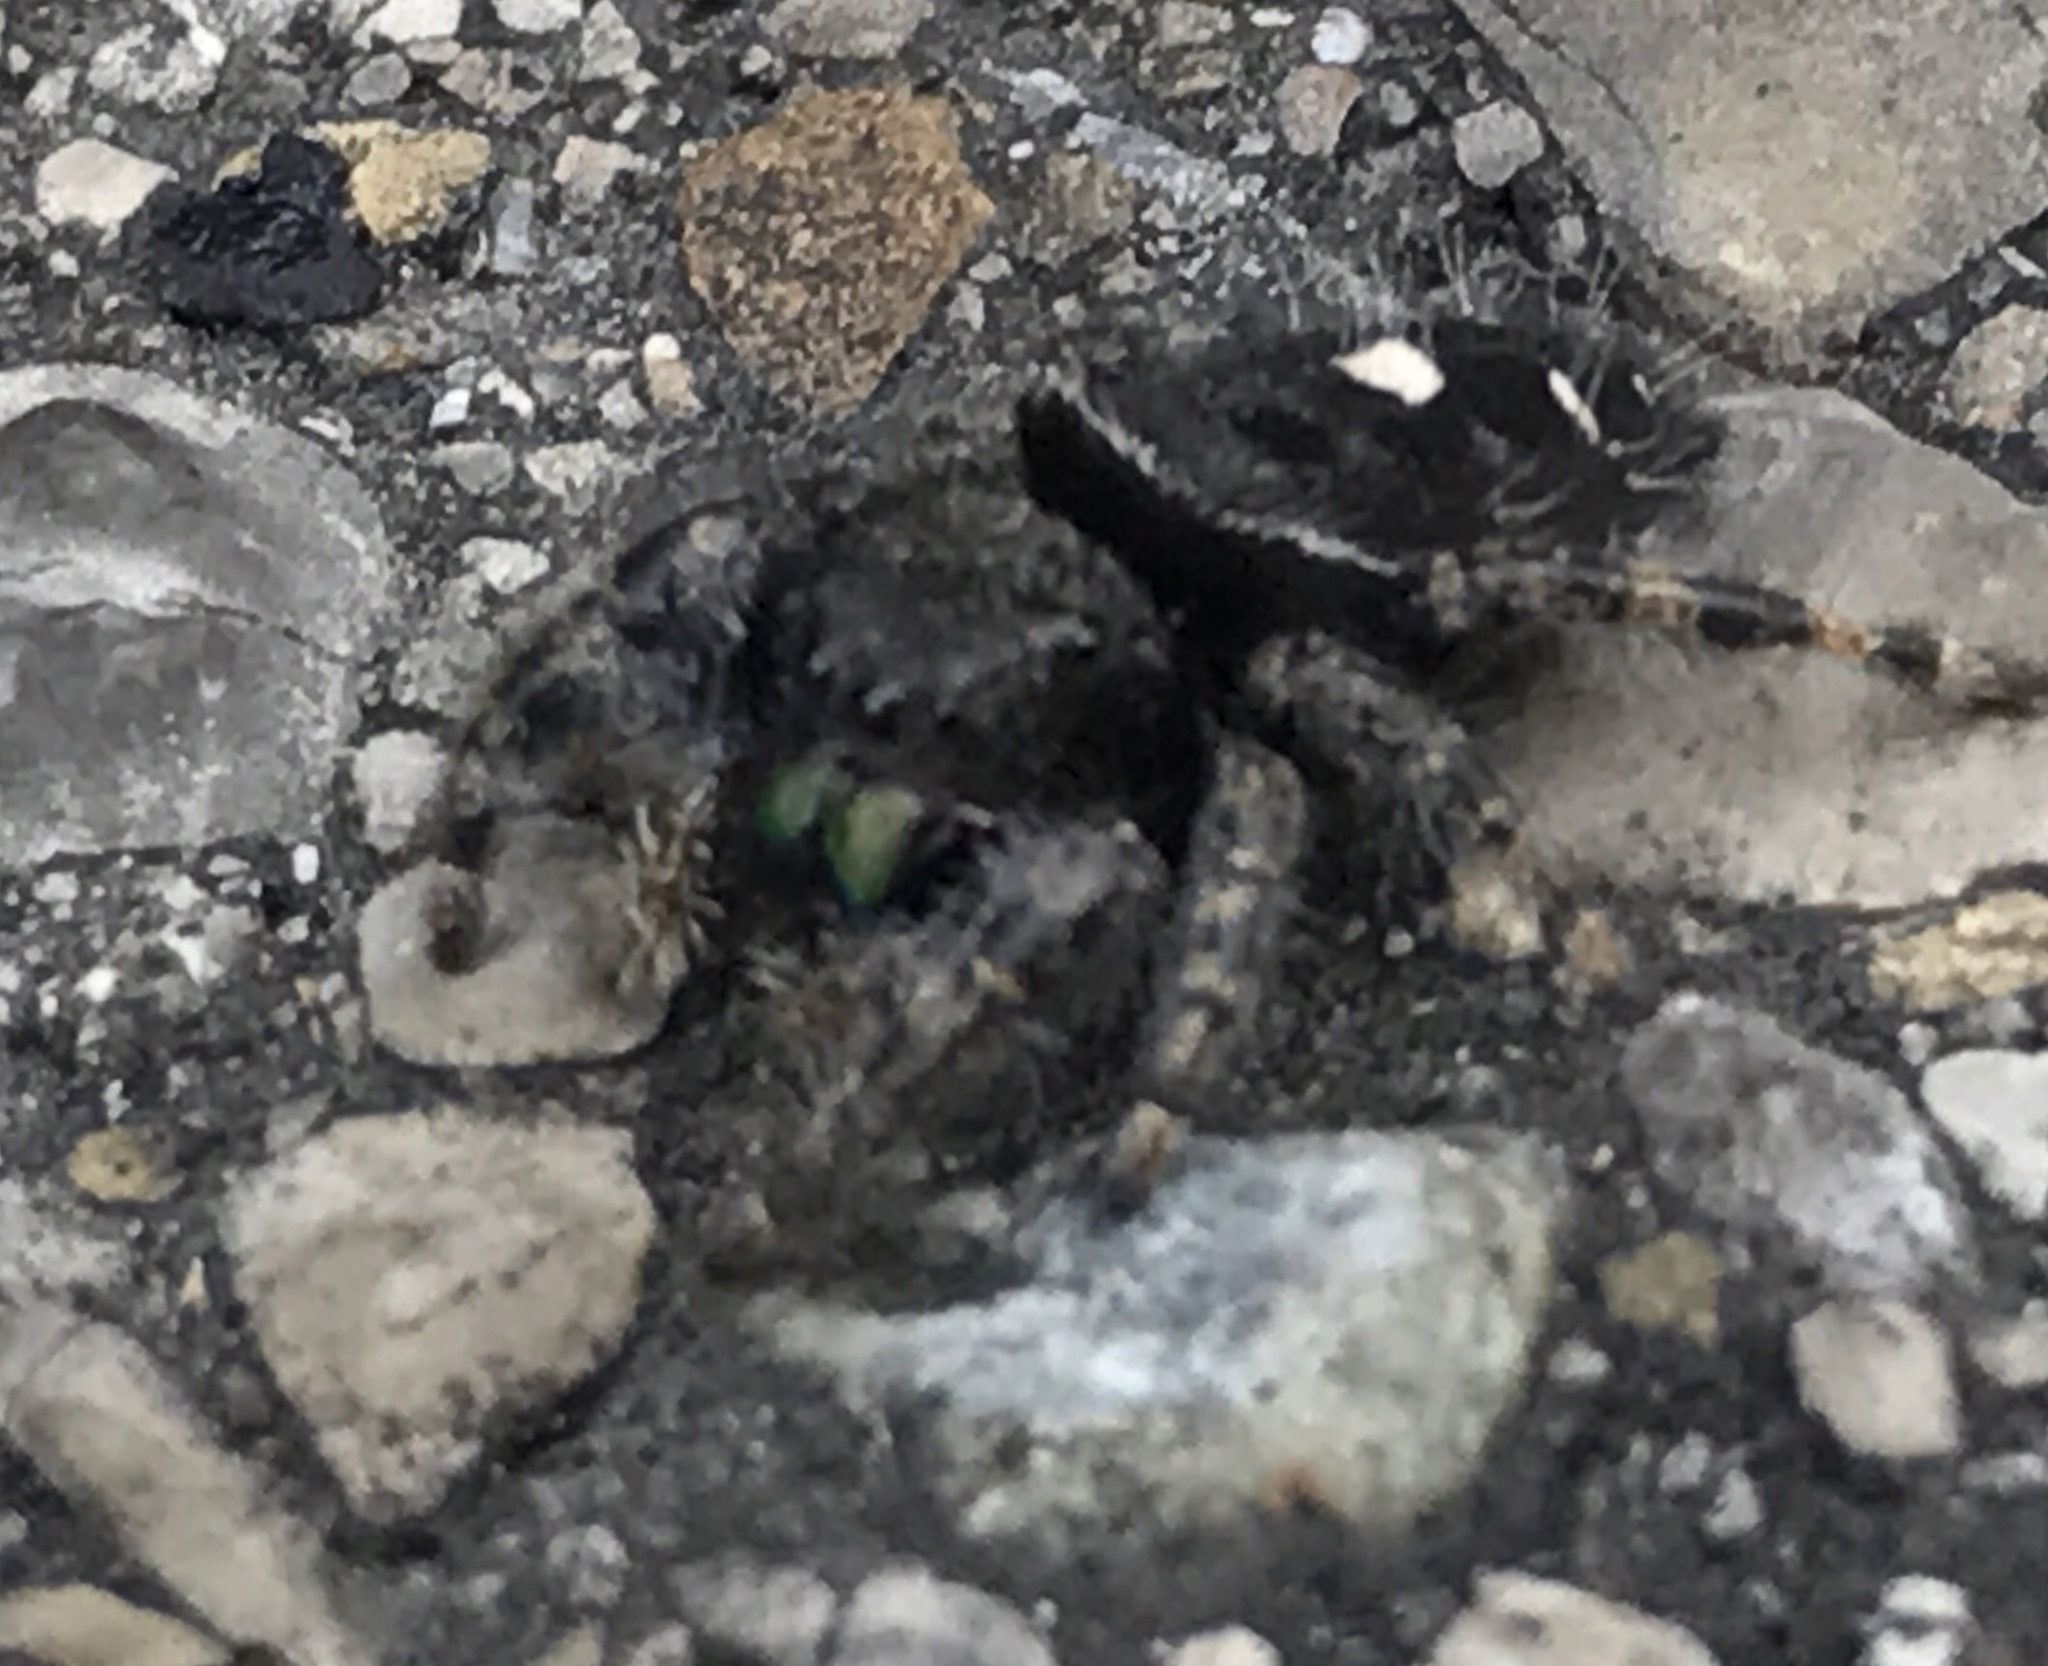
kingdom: Animalia
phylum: Arthropoda
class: Arachnida
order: Araneae
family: Salticidae
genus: Phidippus
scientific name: Phidippus audax
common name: Bold jumper
